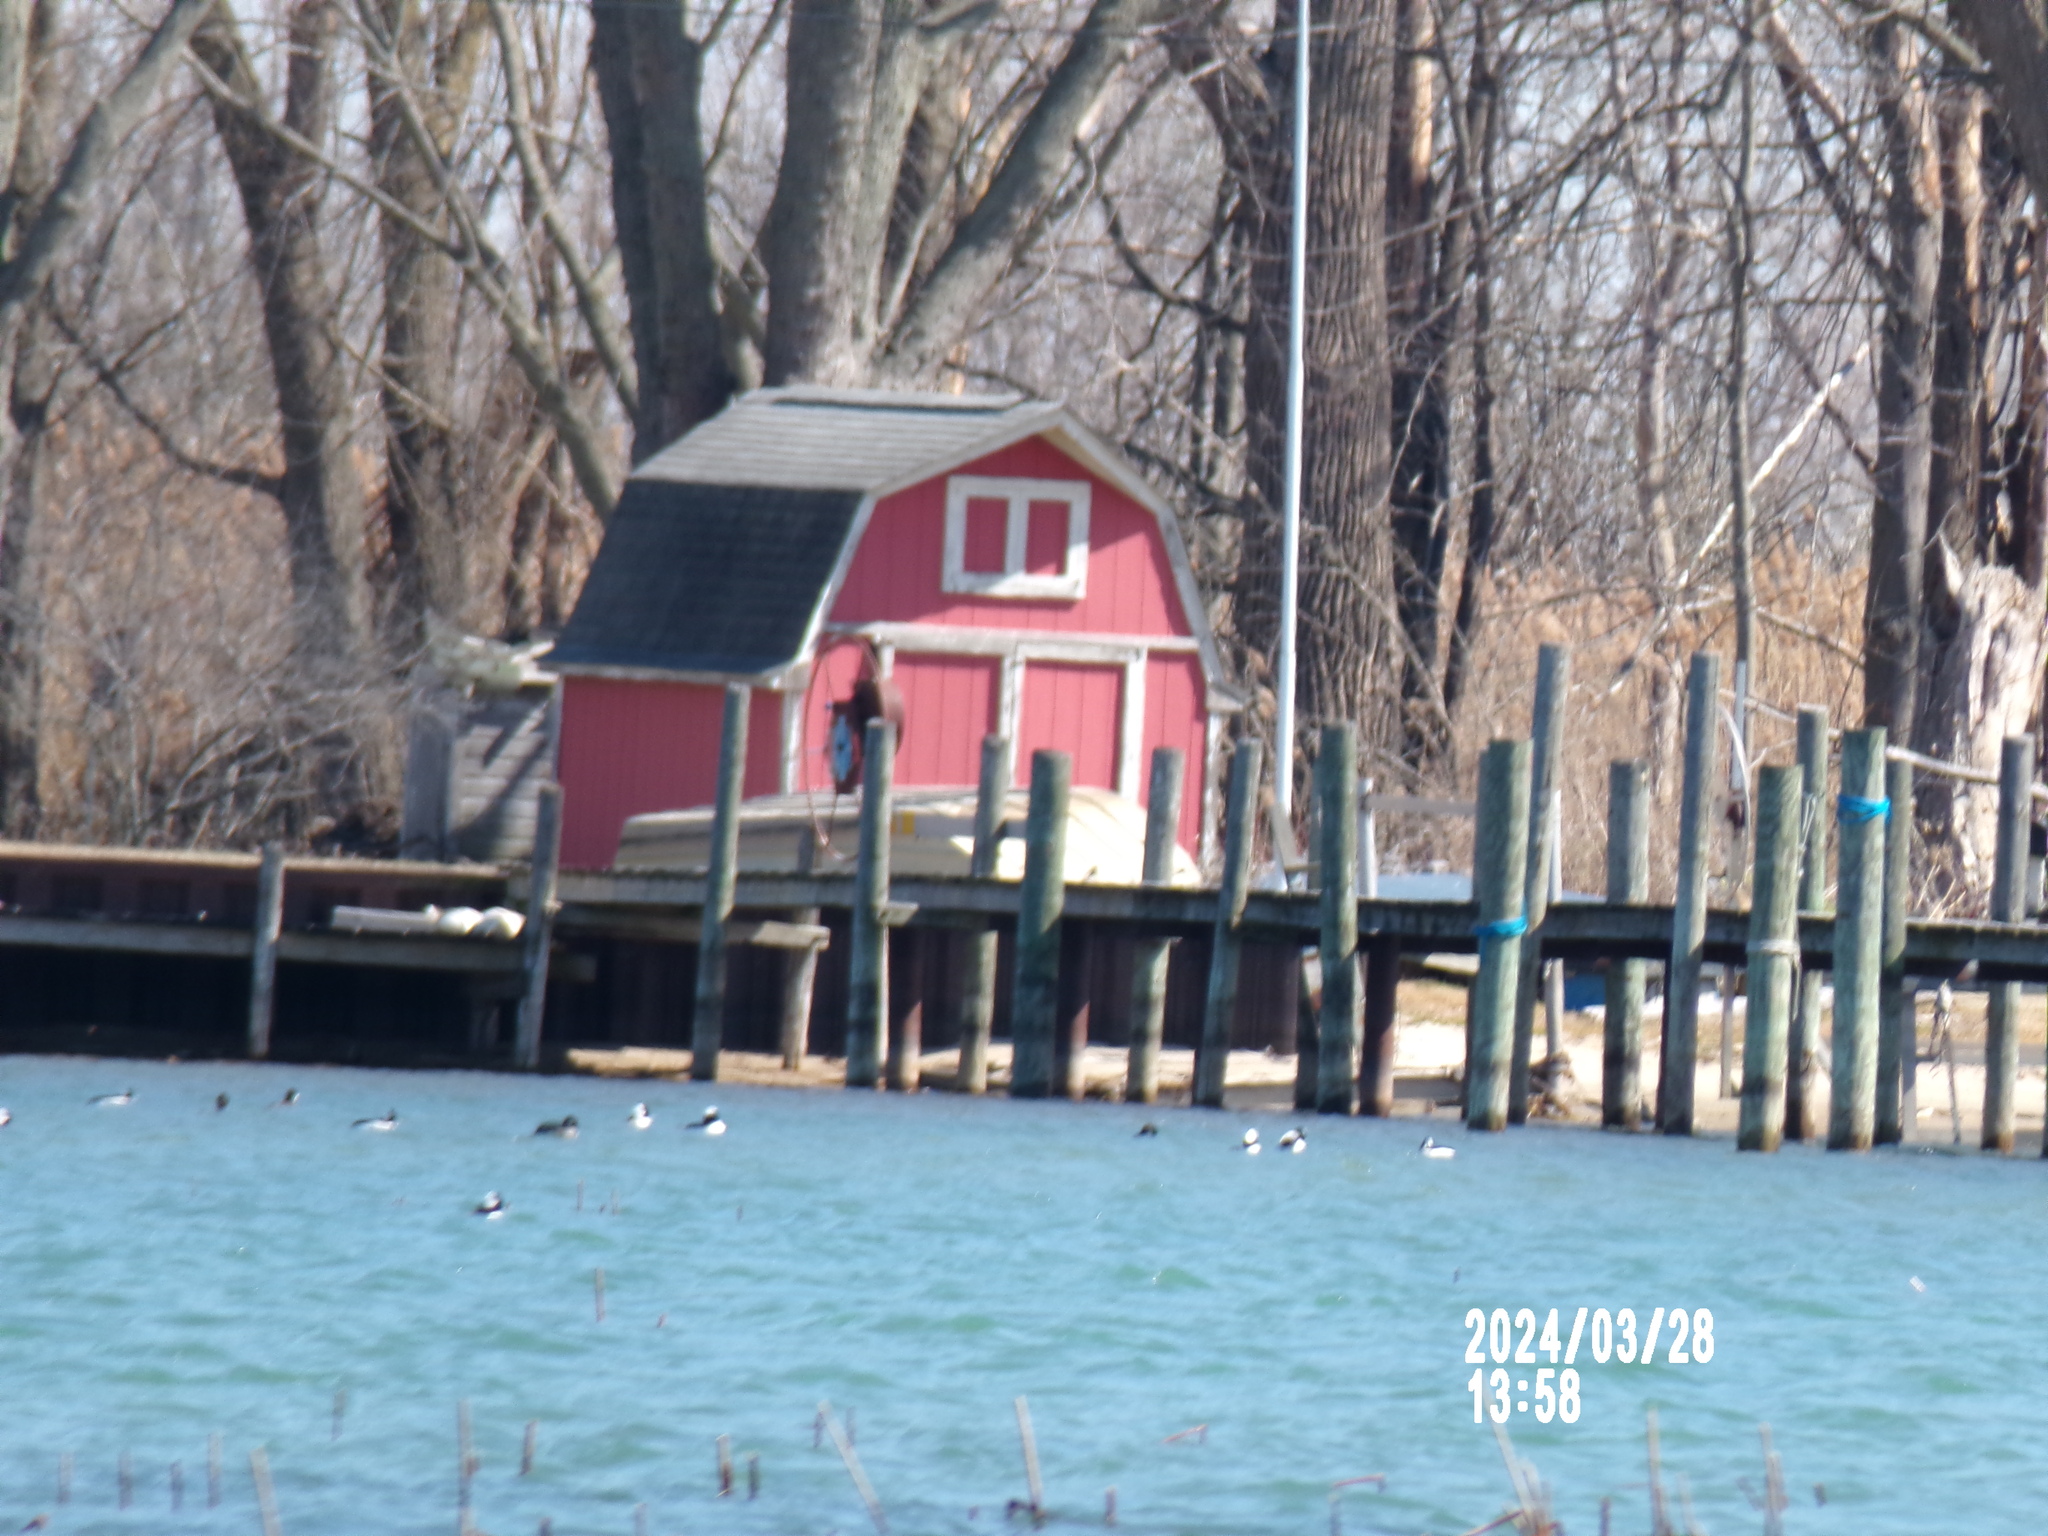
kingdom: Animalia
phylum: Chordata
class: Aves
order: Anseriformes
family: Anatidae
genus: Bucephala
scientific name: Bucephala albeola
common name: Bufflehead
